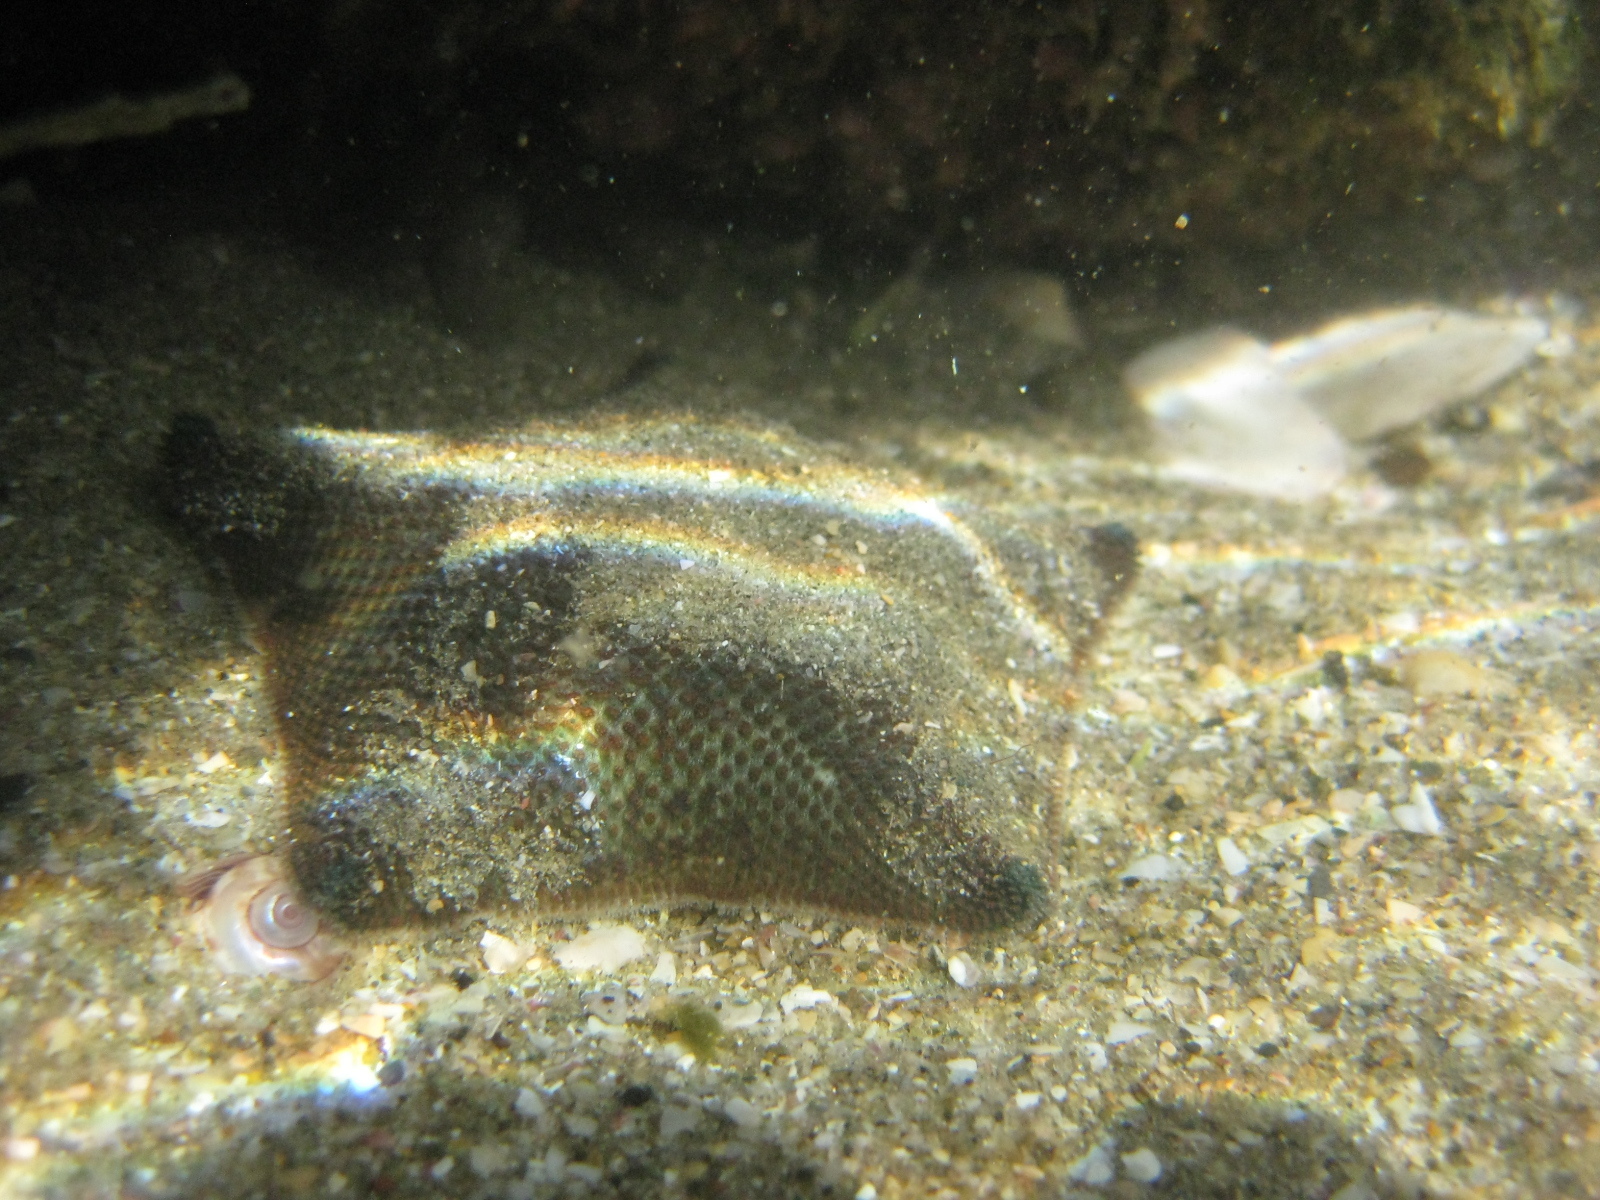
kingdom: Animalia
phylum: Echinodermata
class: Asteroidea
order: Valvatida
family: Asterinidae
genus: Patiriella
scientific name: Patiriella regularis
